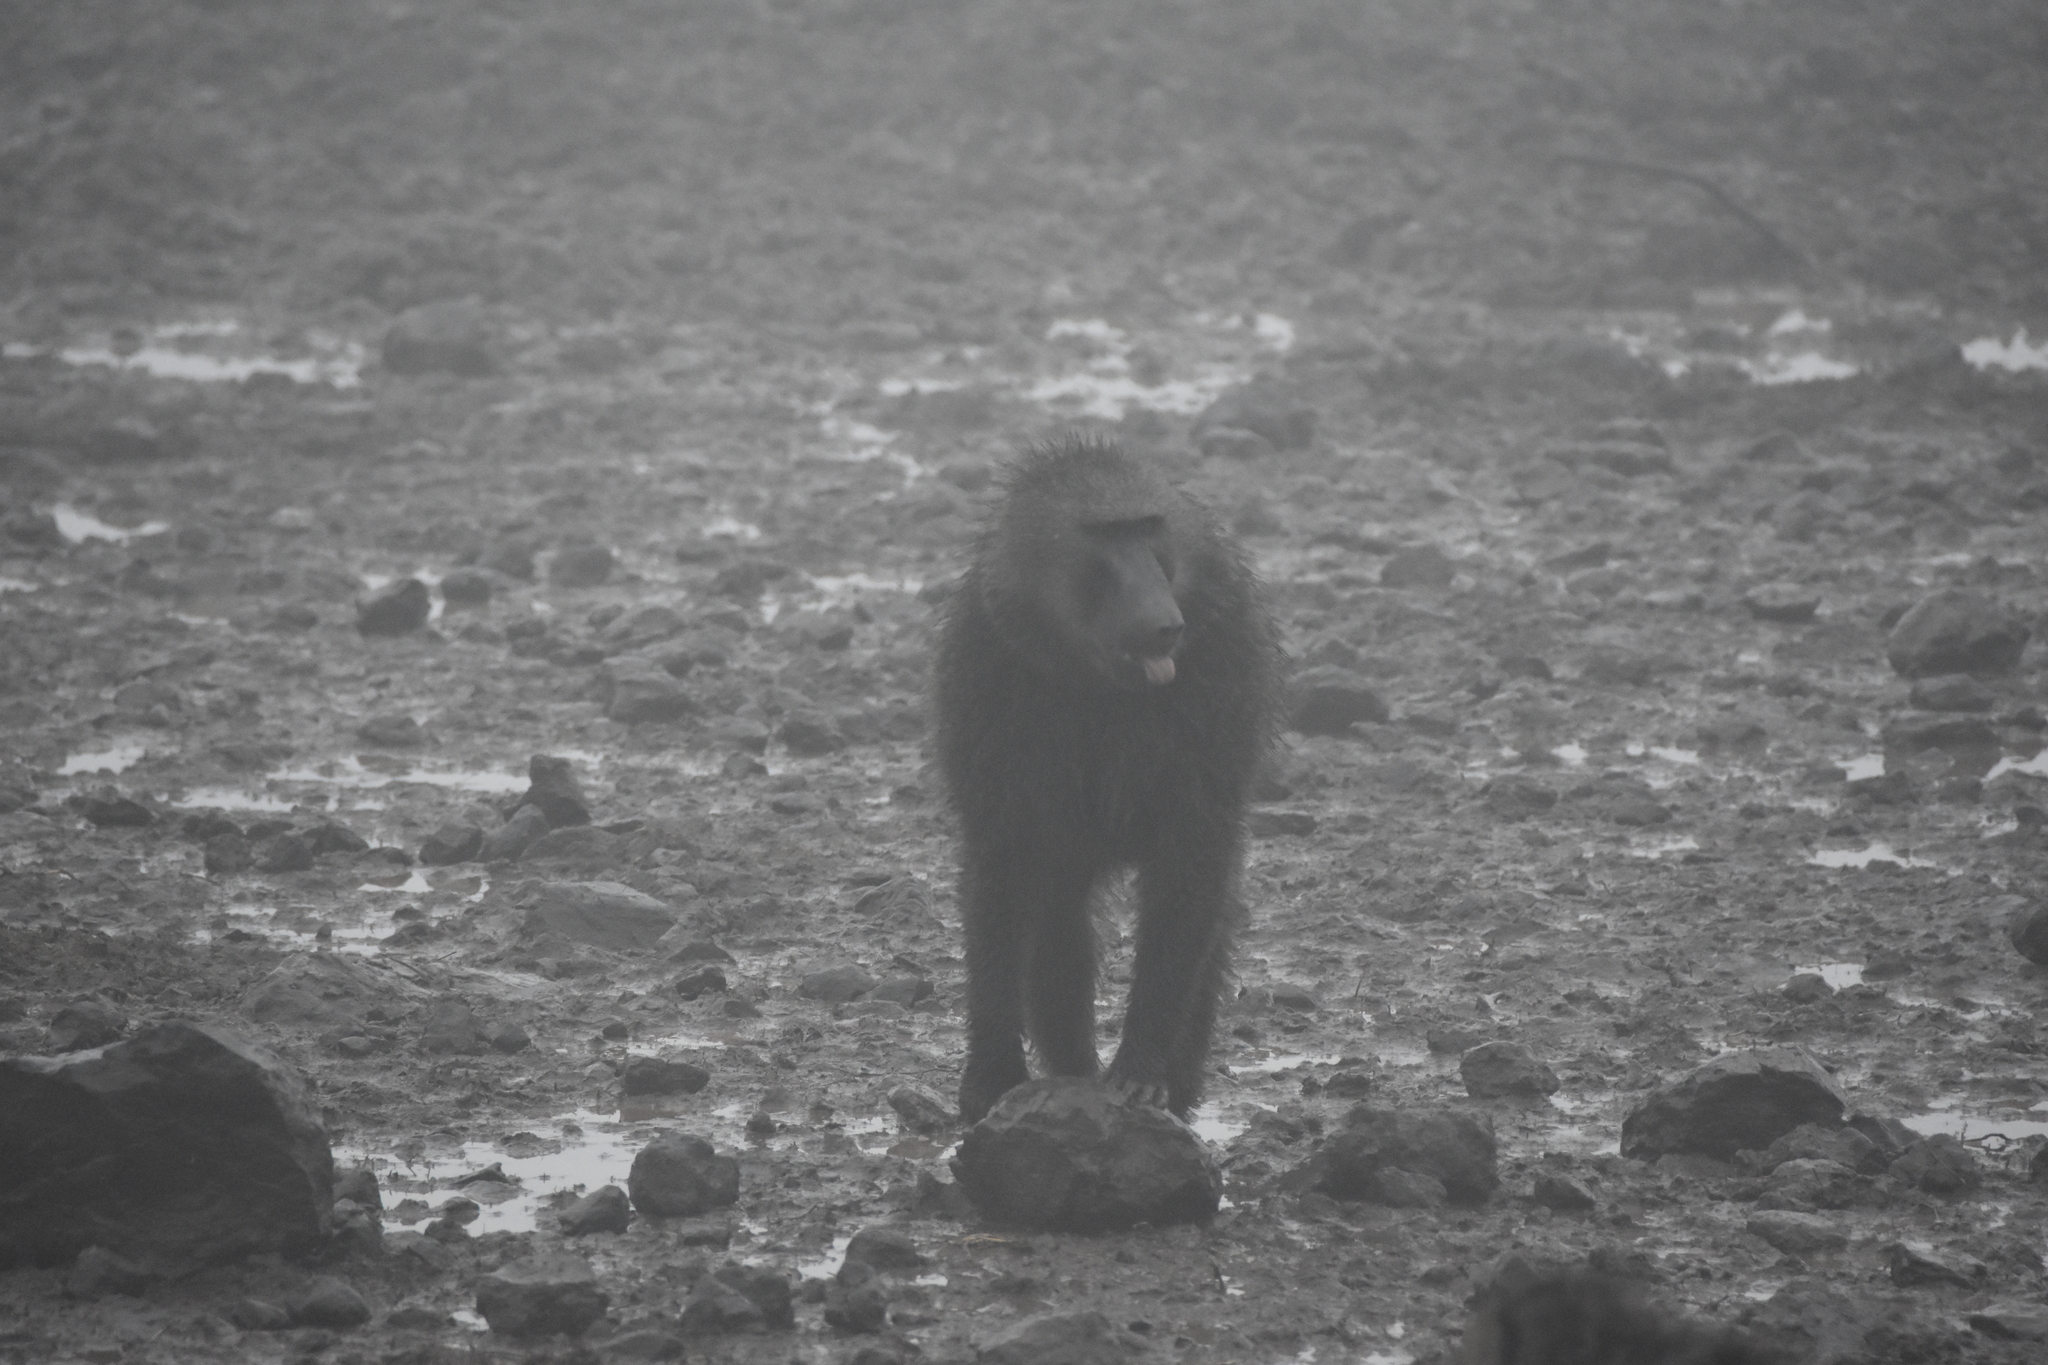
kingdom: Animalia
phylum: Chordata
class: Mammalia
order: Primates
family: Cercopithecidae
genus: Papio
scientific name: Papio anubis
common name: Olive baboon
